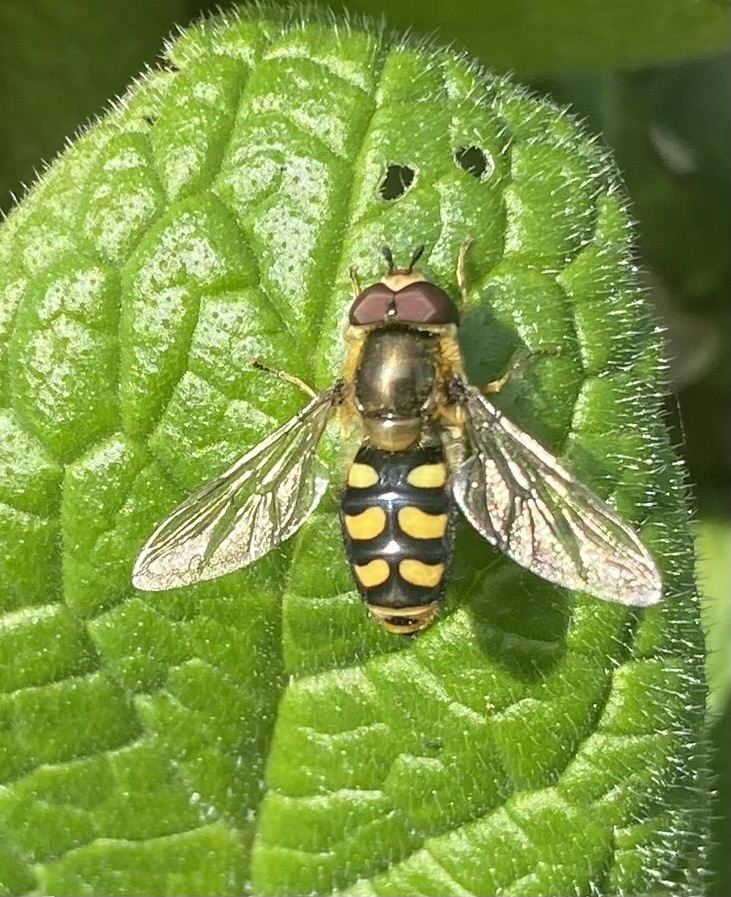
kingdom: Animalia
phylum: Arthropoda
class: Insecta
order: Diptera
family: Syrphidae
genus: Eupeodes
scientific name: Eupeodes
